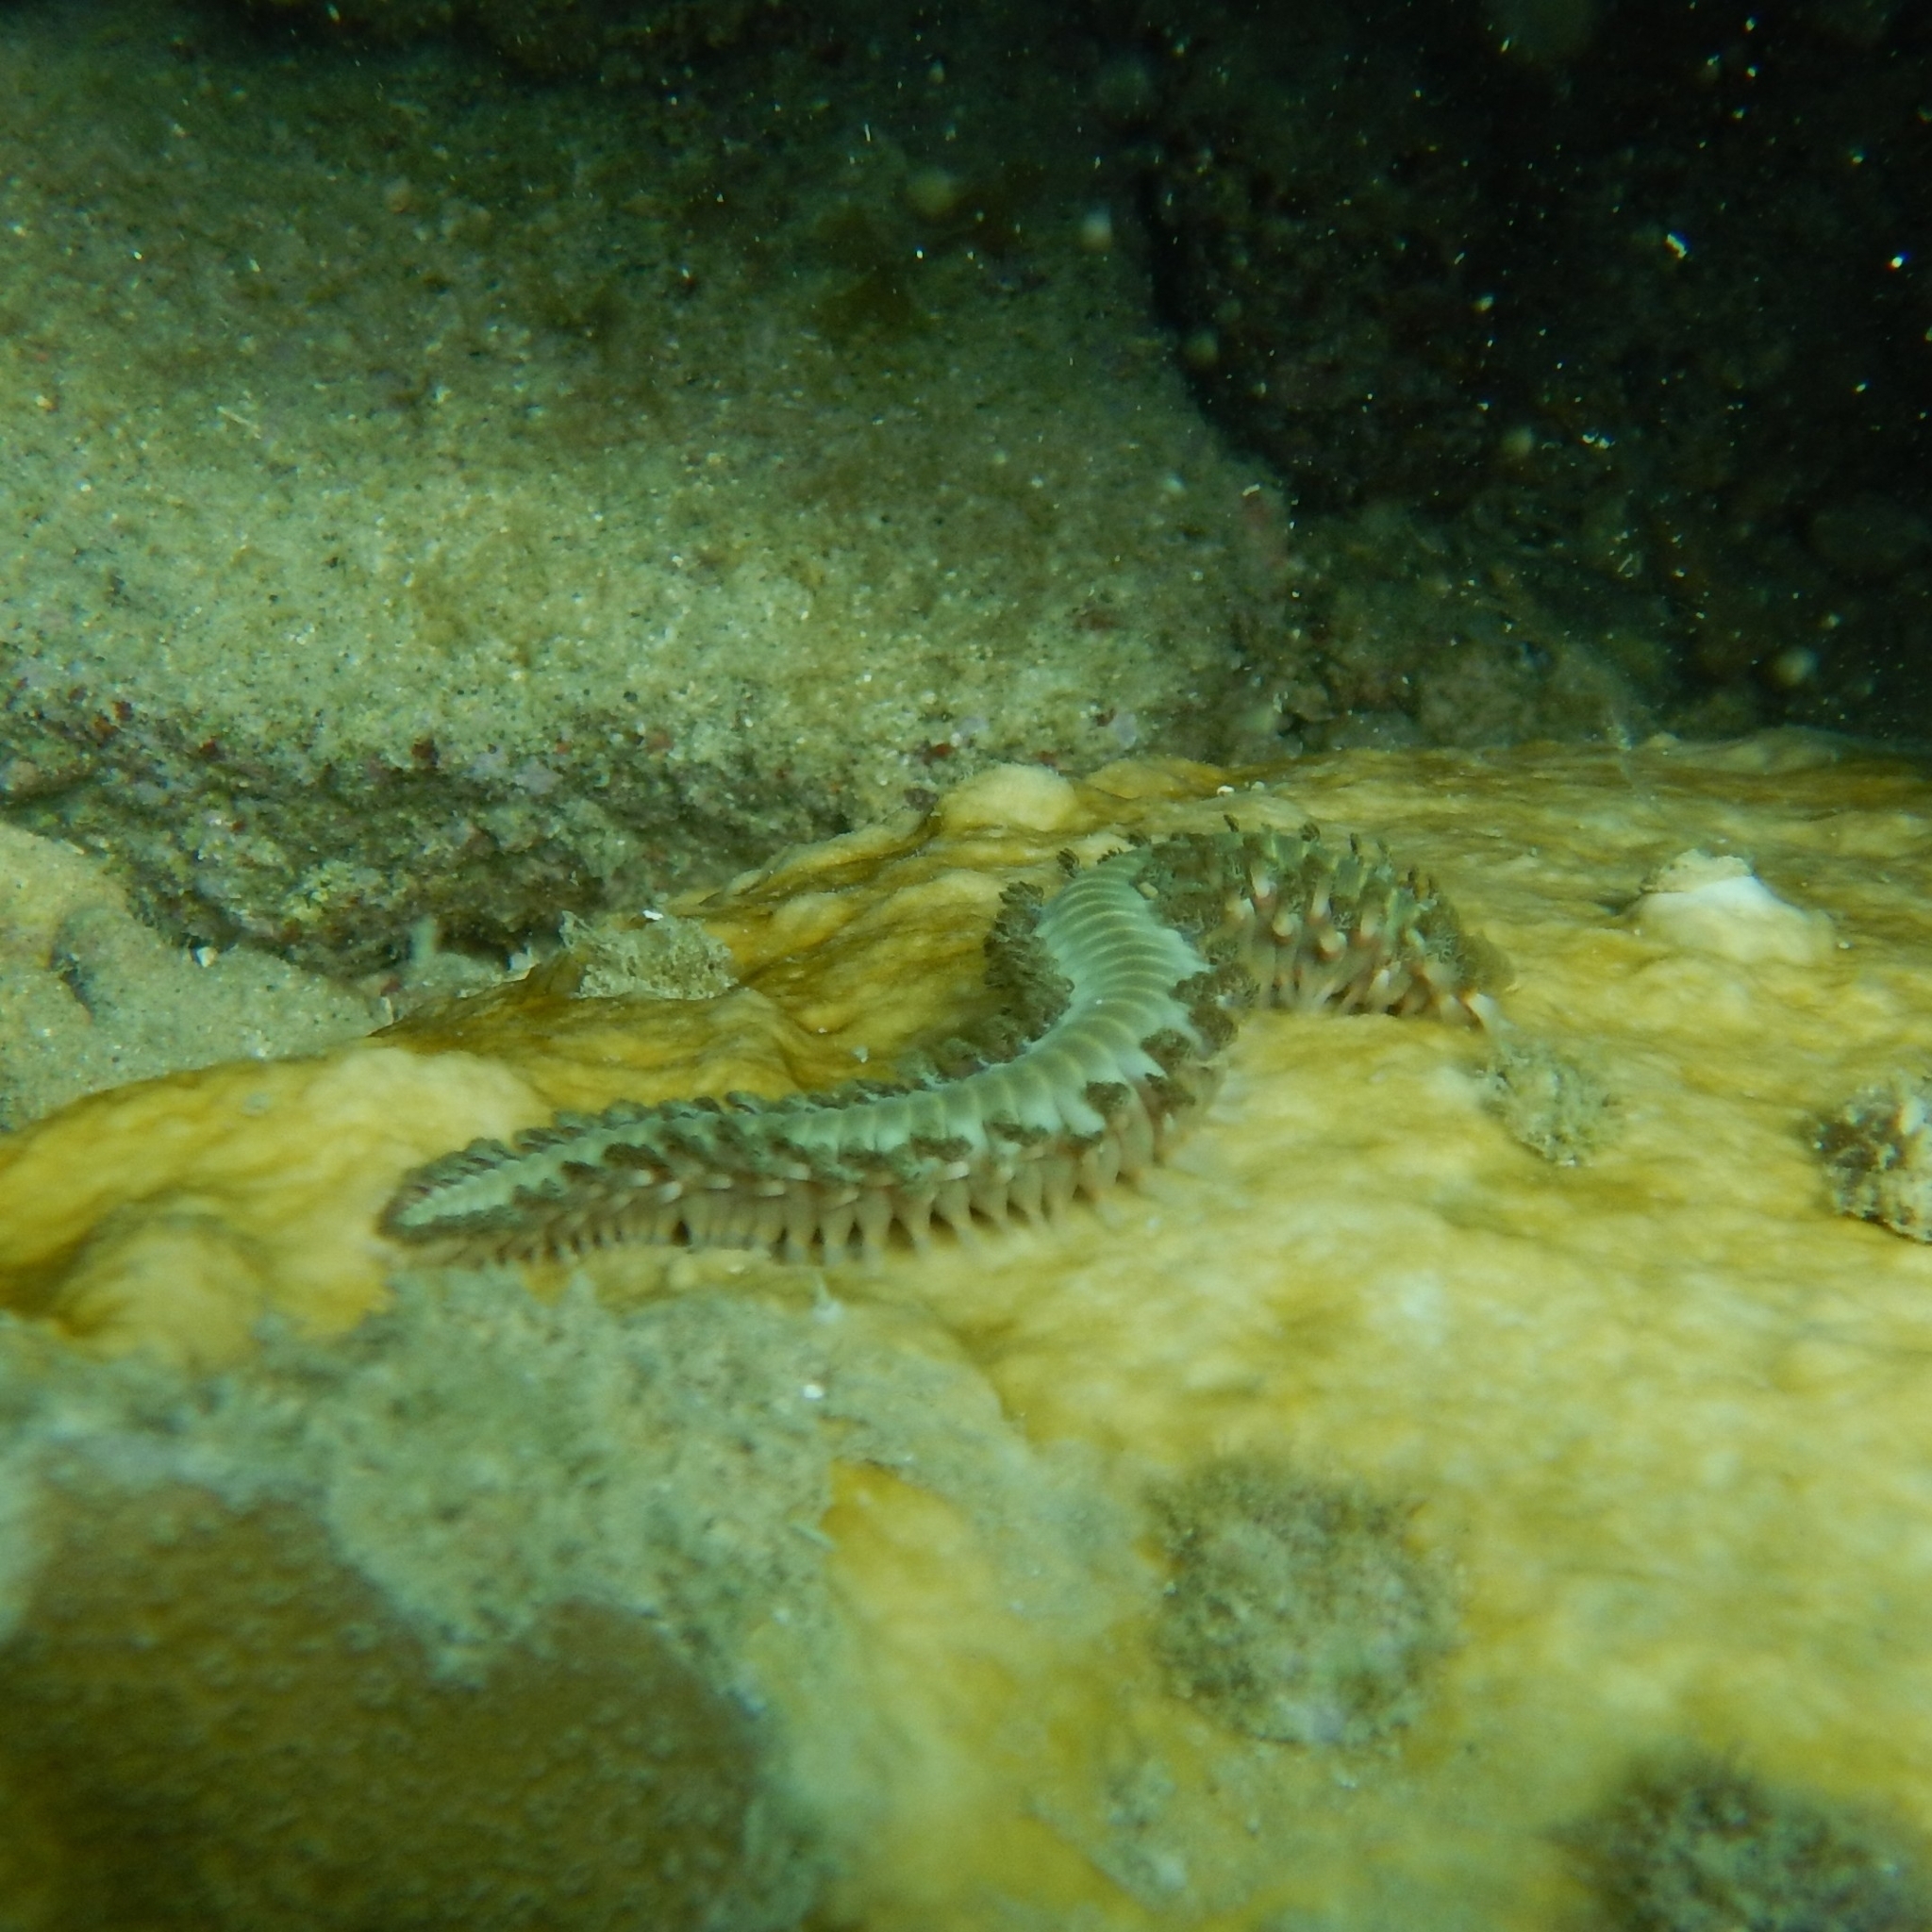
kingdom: Animalia
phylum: Annelida
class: Polychaeta
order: Amphinomida
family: Amphinomidae
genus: Hermodice
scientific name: Hermodice carunculata
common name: Bearded fireworm
